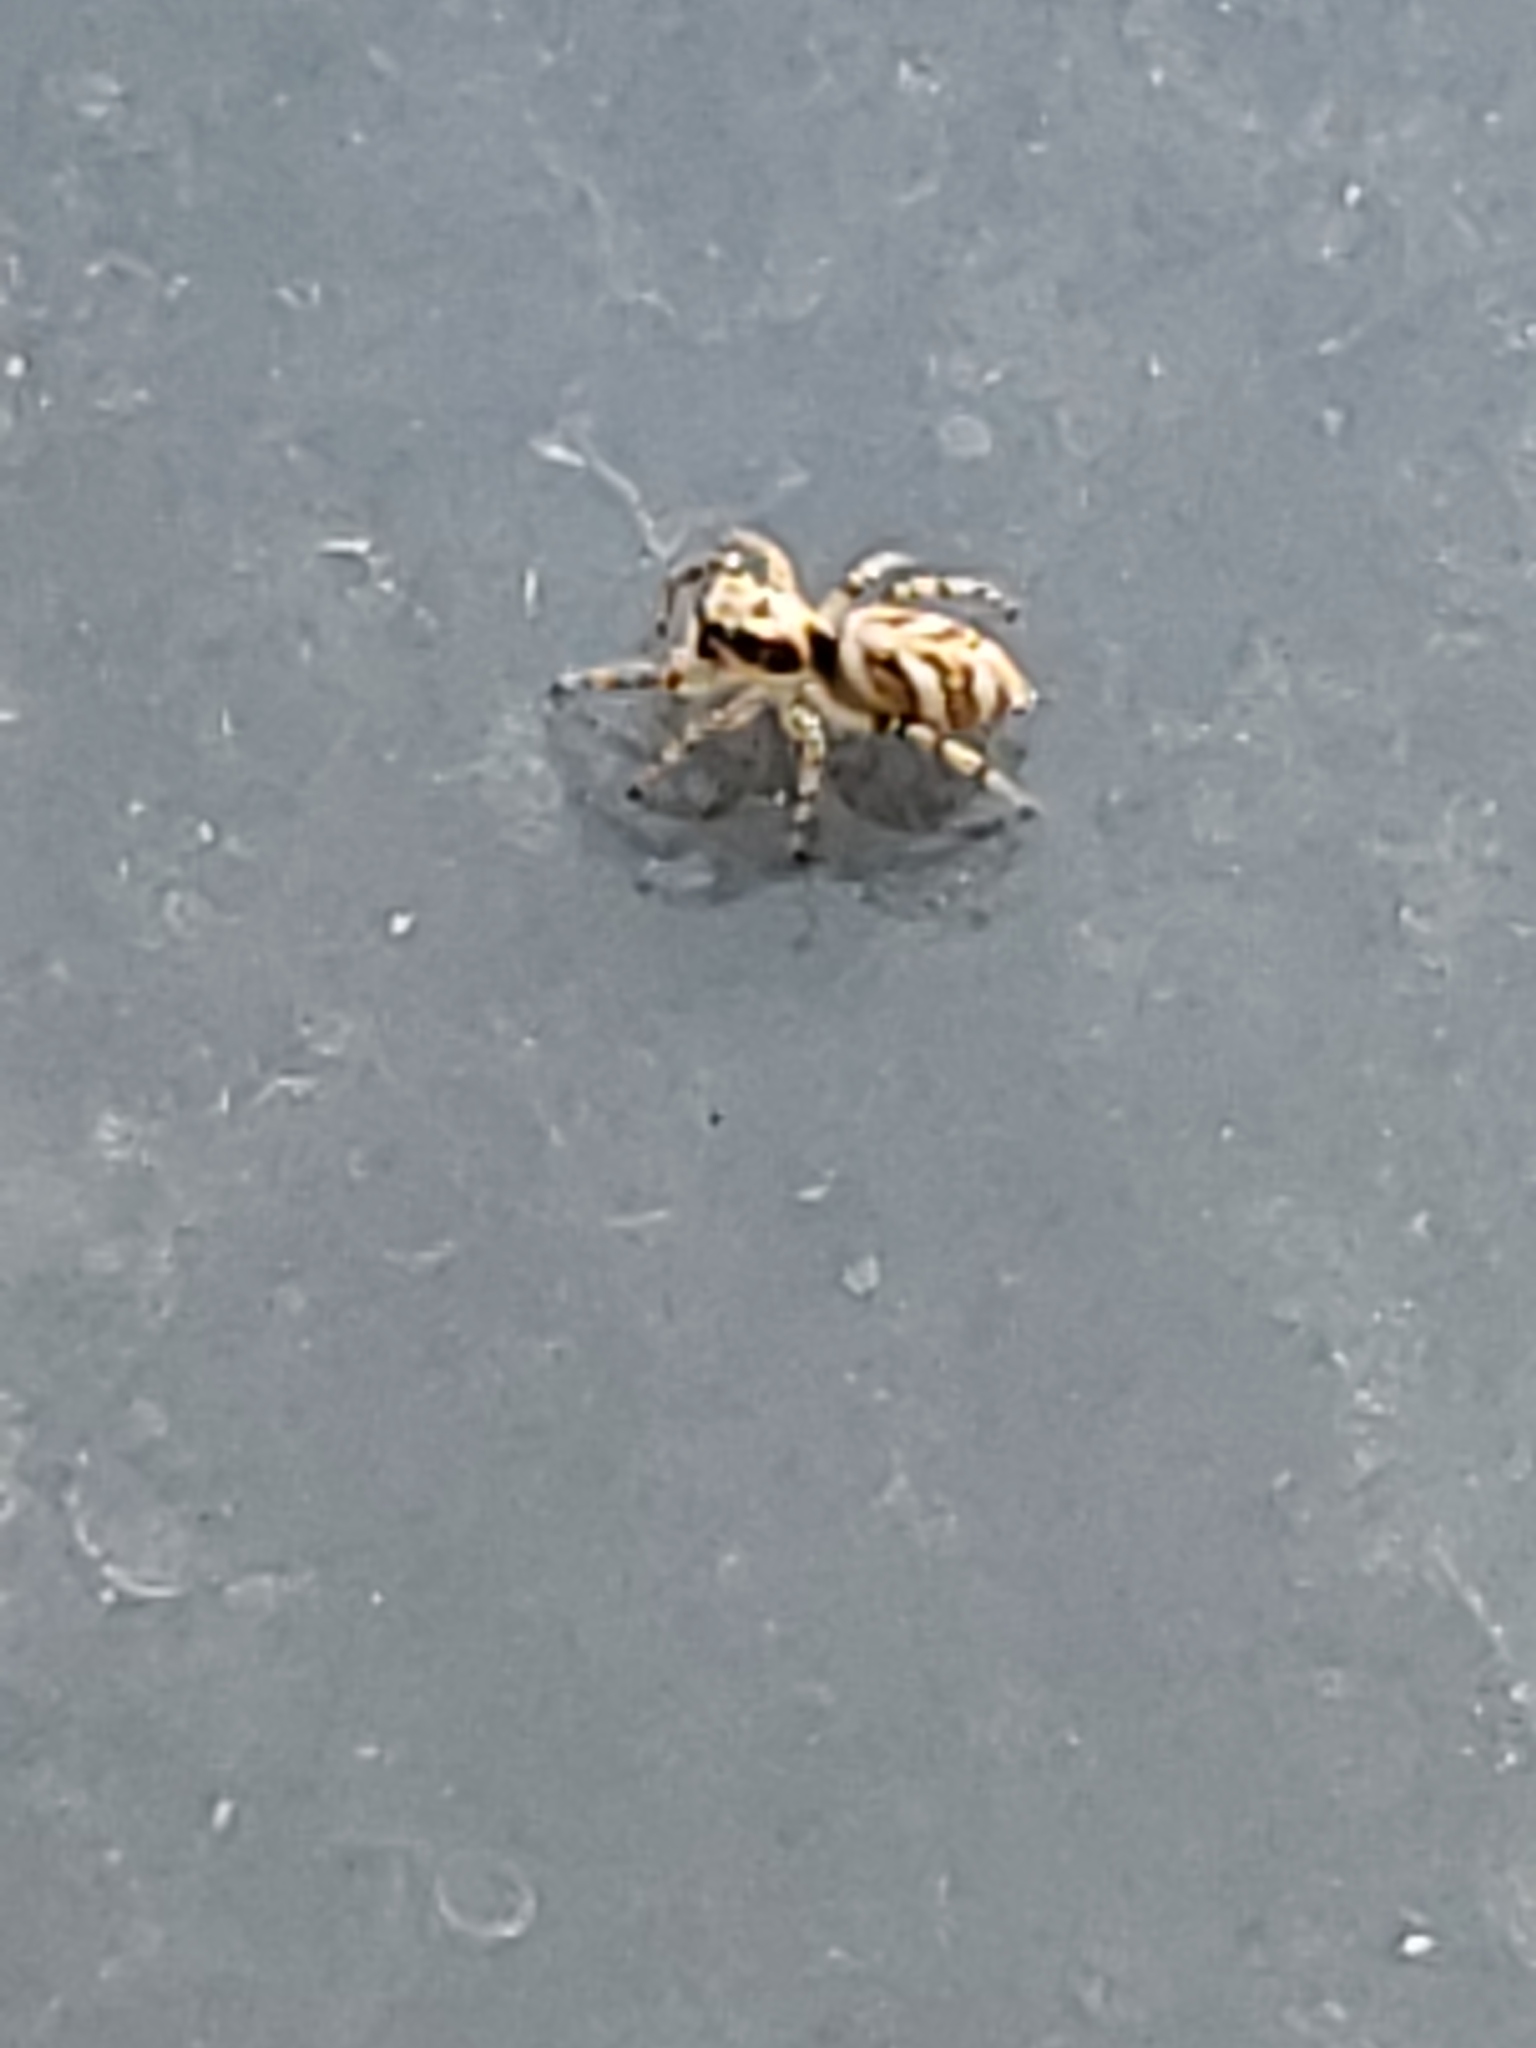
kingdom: Animalia
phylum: Arthropoda
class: Arachnida
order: Araneae
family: Salticidae
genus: Salticus
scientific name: Salticus scenicus
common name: Zebra jumper
